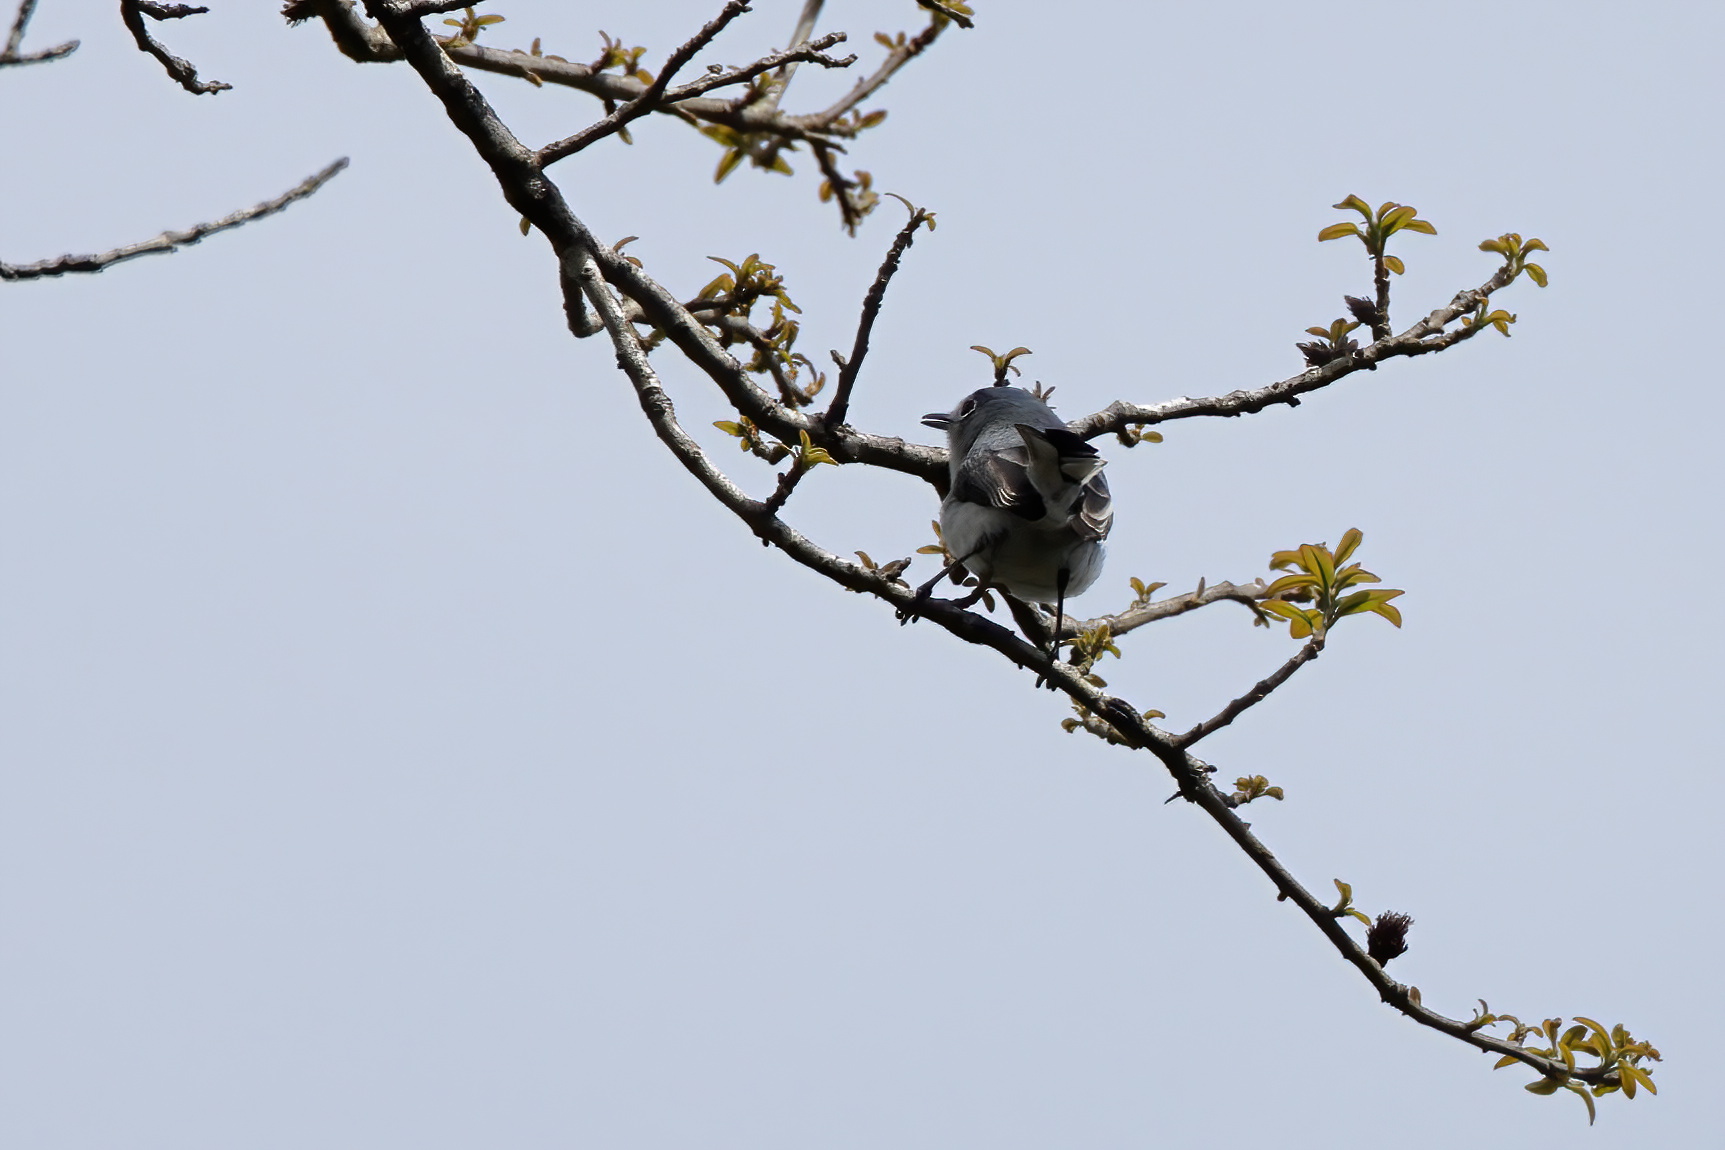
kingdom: Animalia
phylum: Chordata
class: Aves
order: Passeriformes
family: Polioptilidae
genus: Polioptila
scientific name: Polioptila caerulea
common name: Blue-gray gnatcatcher
